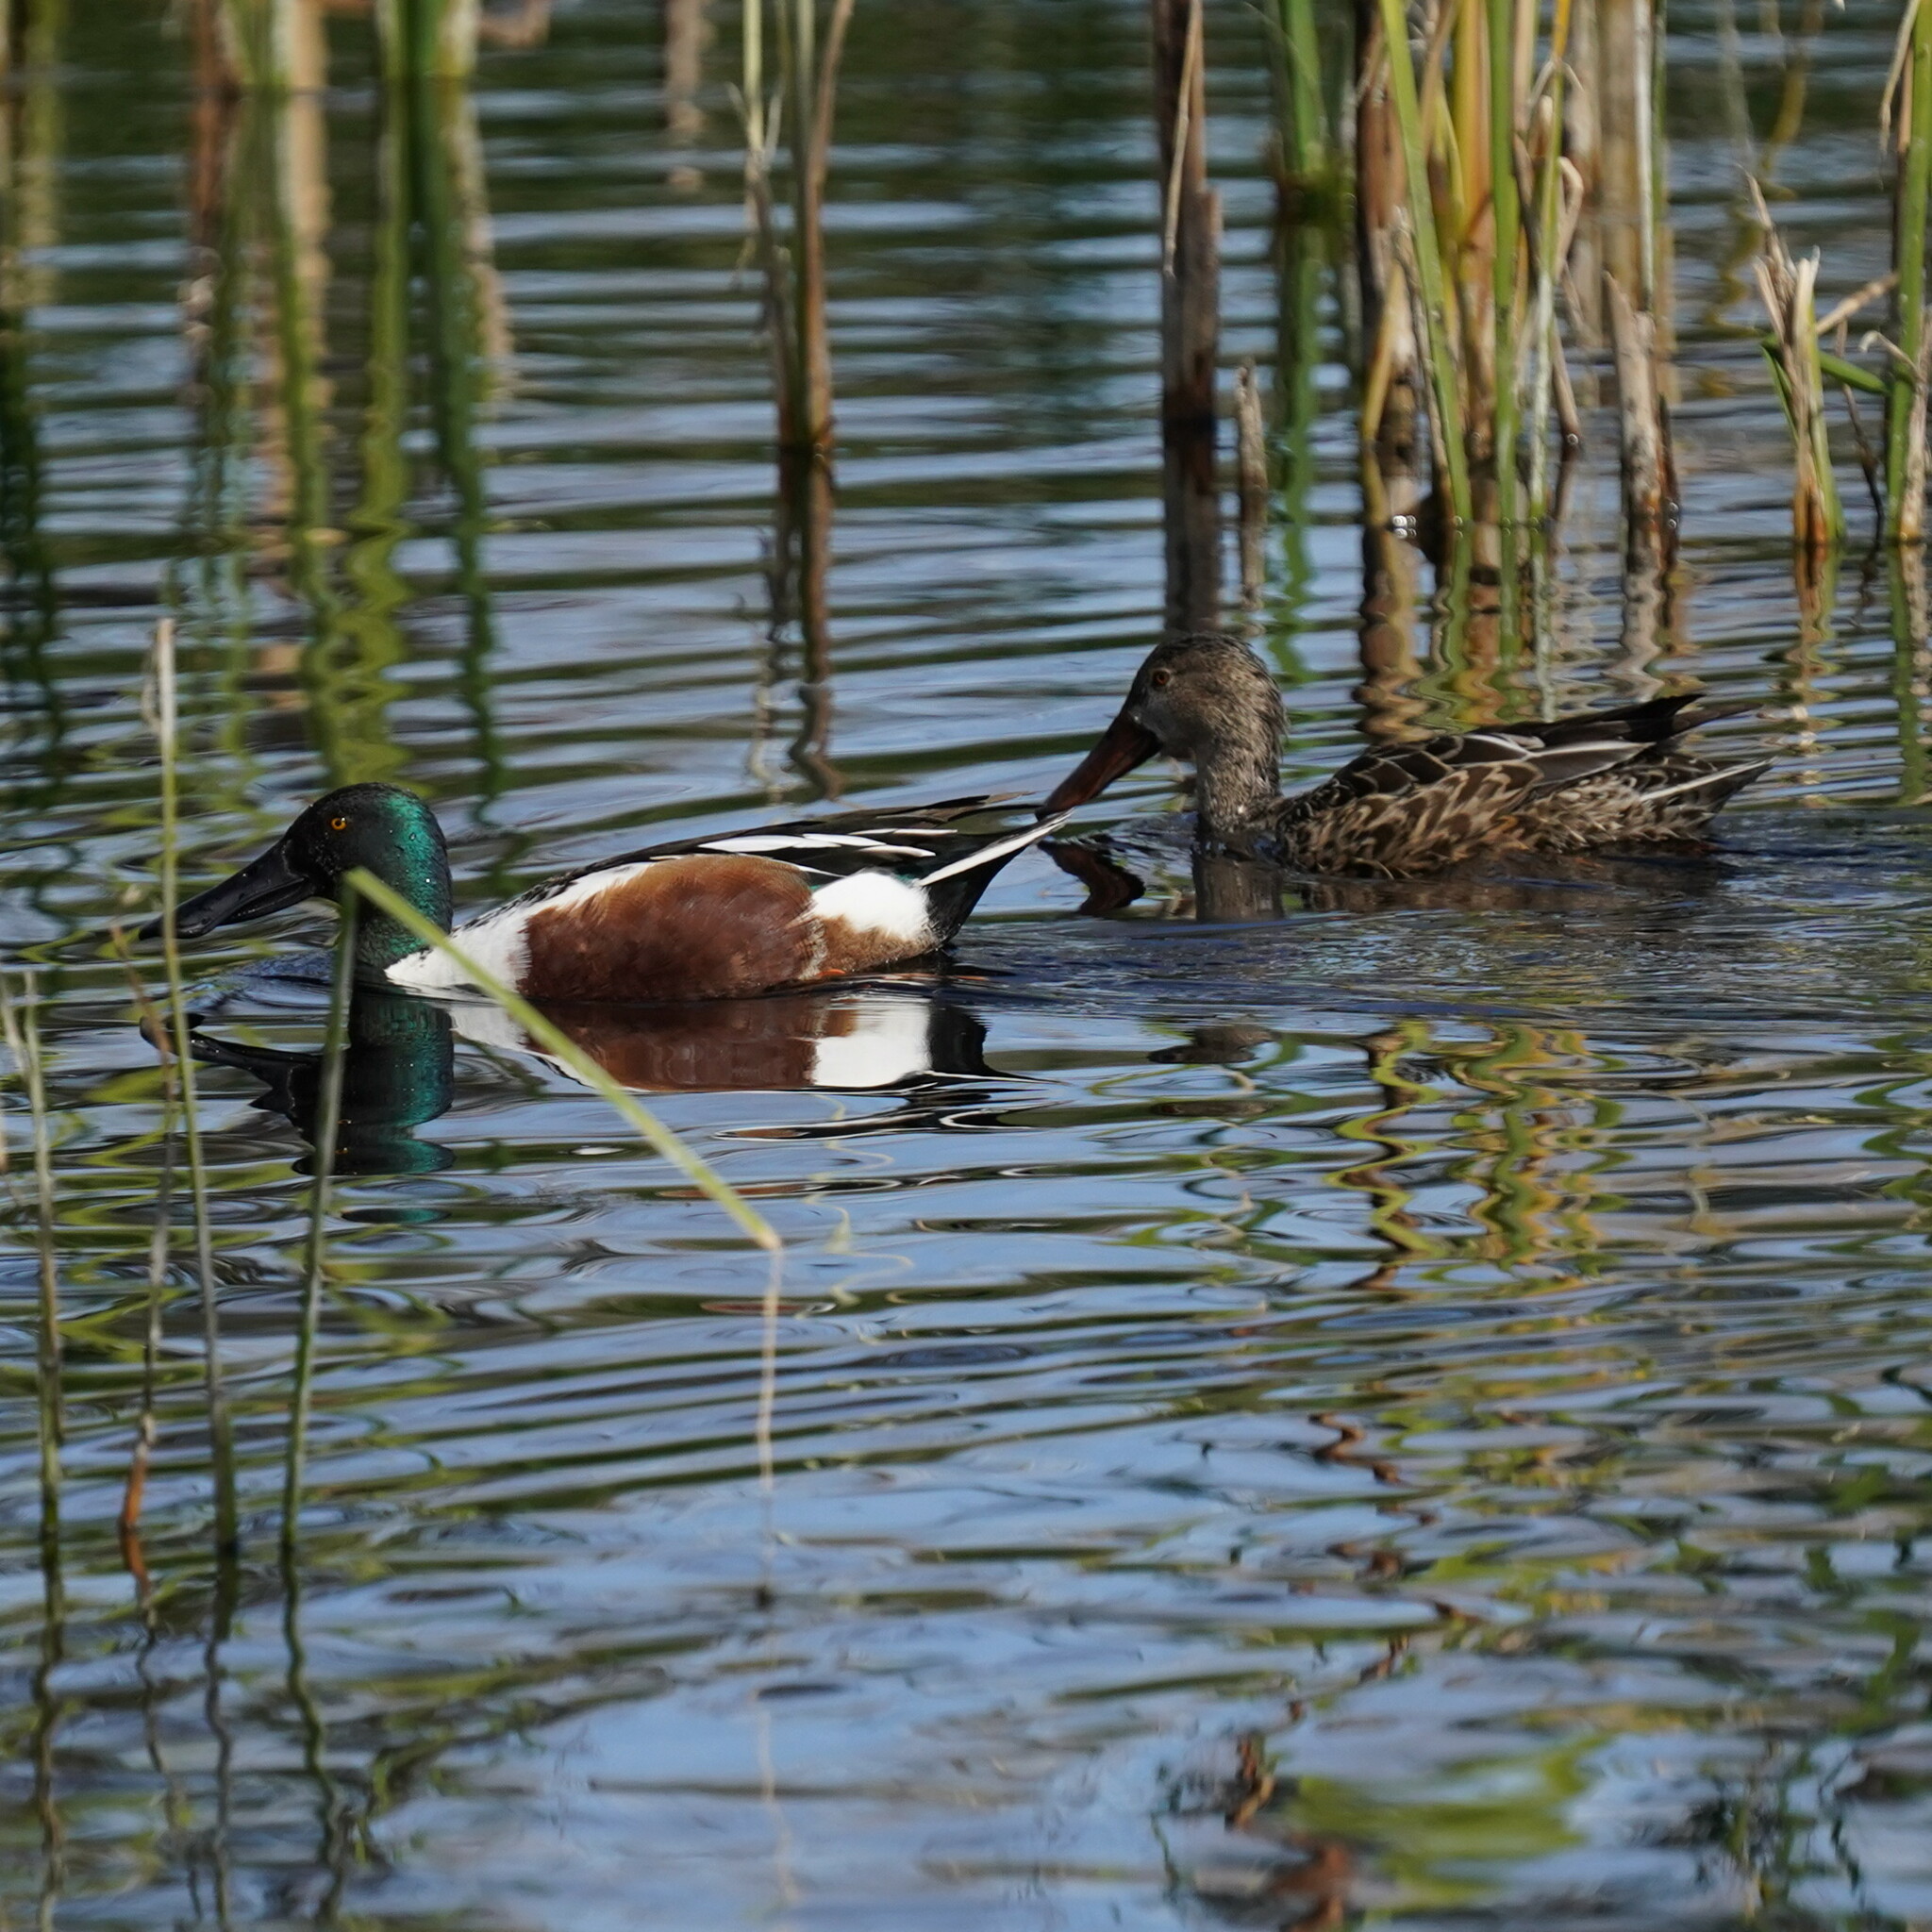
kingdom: Animalia
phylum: Chordata
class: Aves
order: Anseriformes
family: Anatidae
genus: Spatula
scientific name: Spatula clypeata
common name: Northern shoveler
